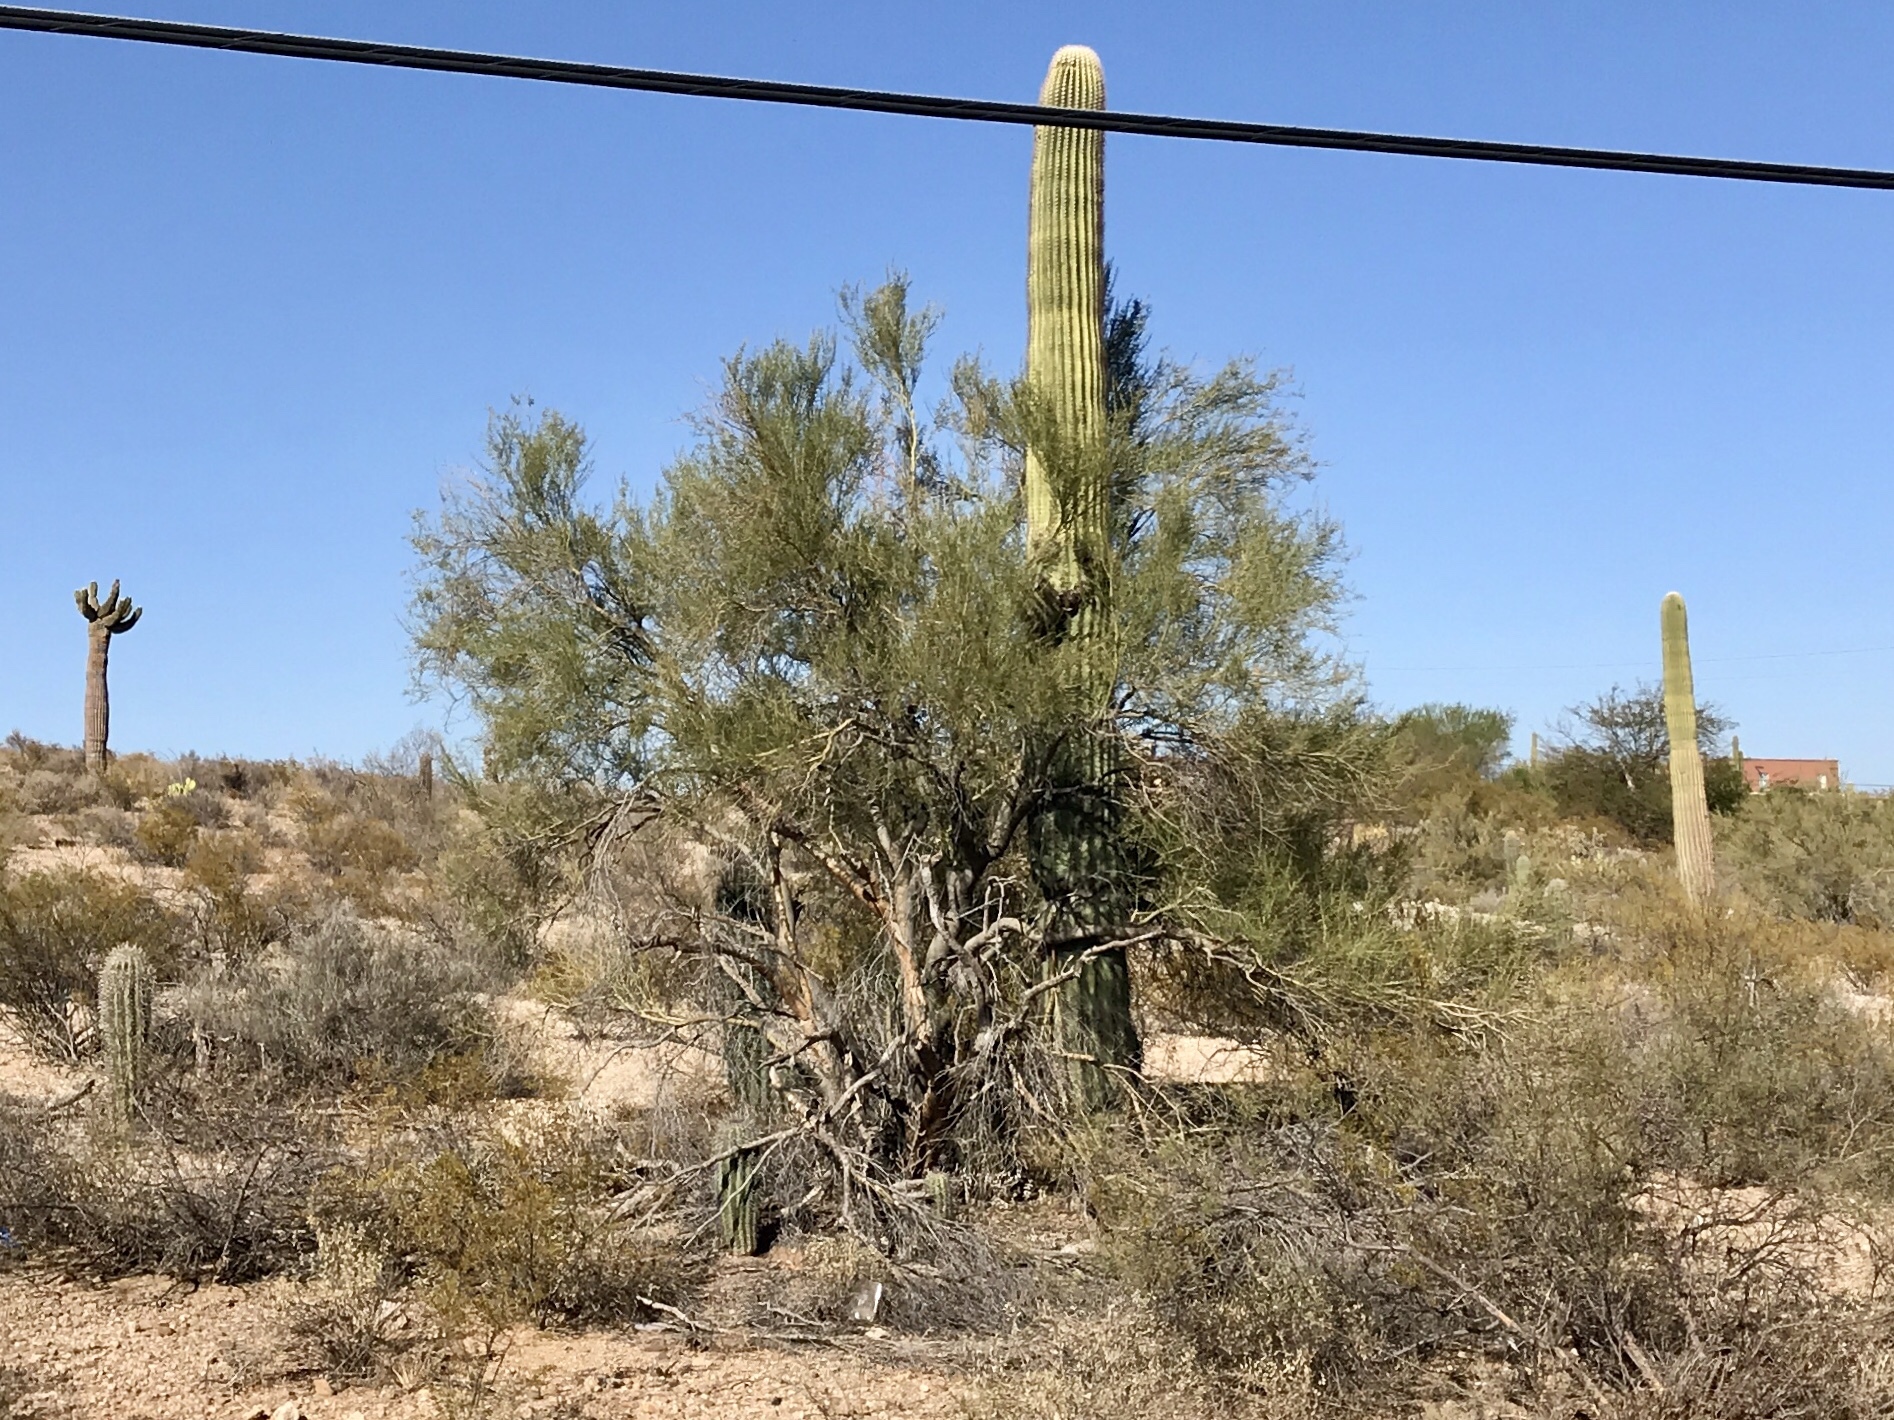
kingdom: Plantae
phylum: Tracheophyta
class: Magnoliopsida
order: Fabales
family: Fabaceae
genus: Parkinsonia
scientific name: Parkinsonia florida
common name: Blue paloverde
